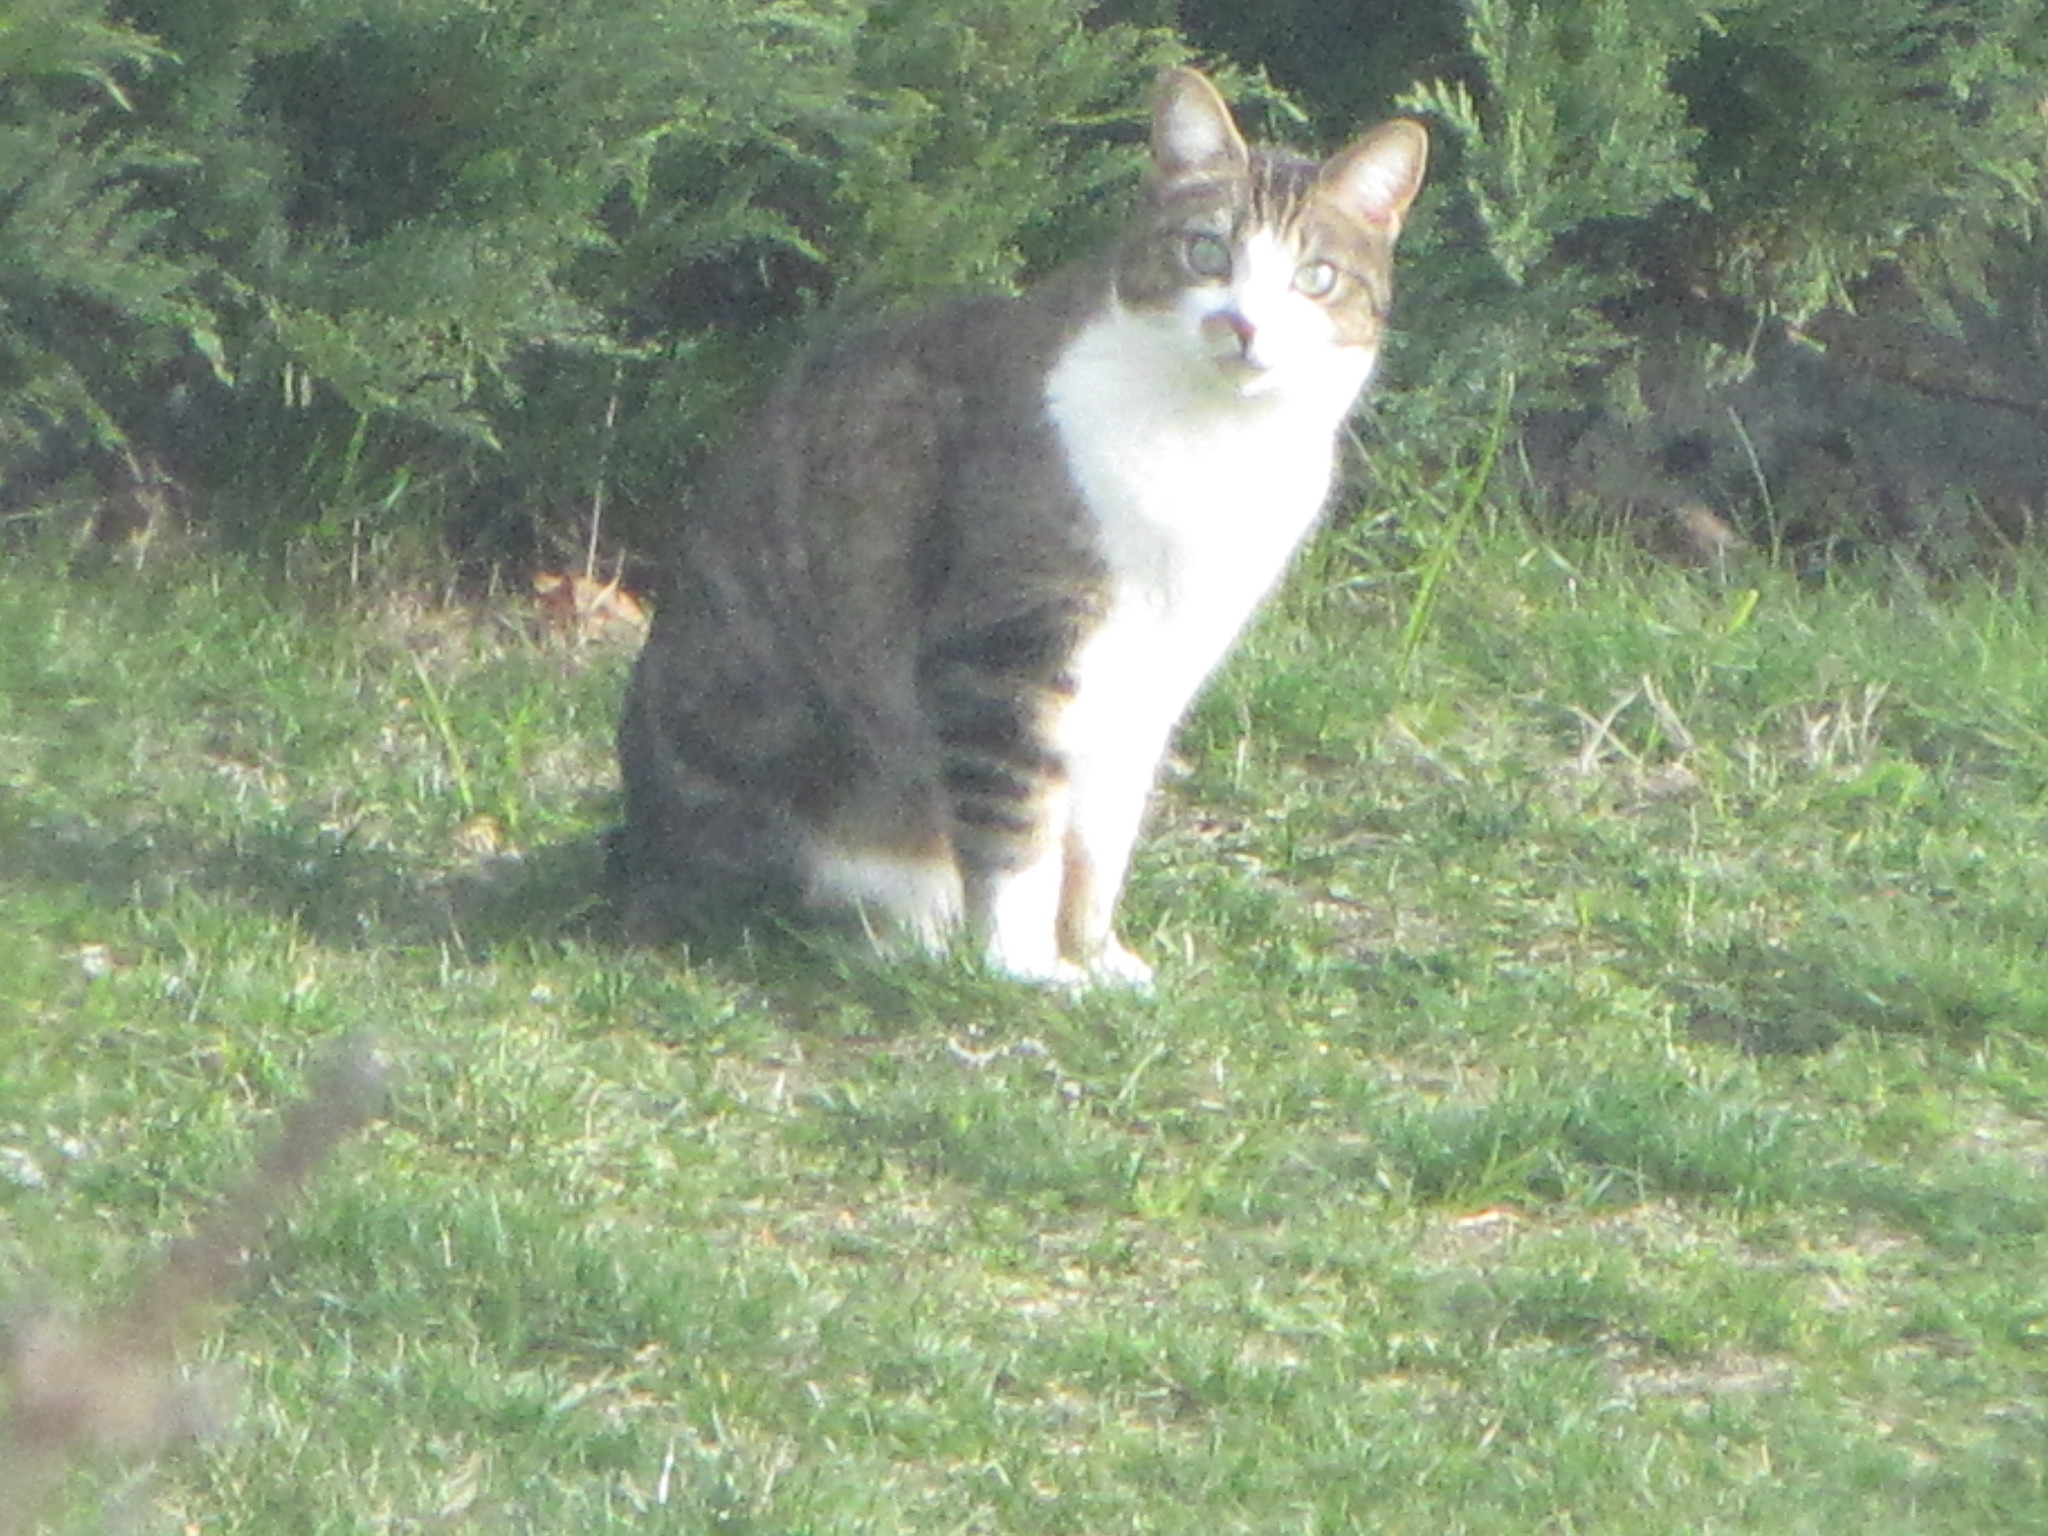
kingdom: Animalia
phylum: Chordata
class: Mammalia
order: Carnivora
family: Felidae
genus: Felis
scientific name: Felis catus
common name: Domestic cat
